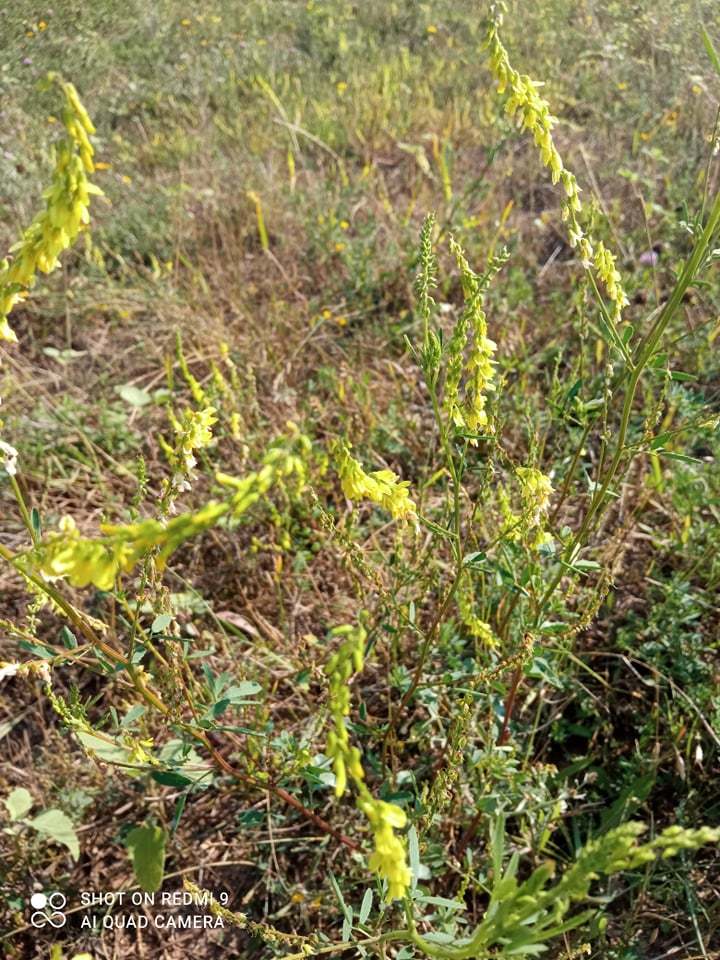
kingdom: Plantae
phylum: Tracheophyta
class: Magnoliopsida
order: Fabales
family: Fabaceae
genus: Melilotus
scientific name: Melilotus officinalis
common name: Sweetclover
